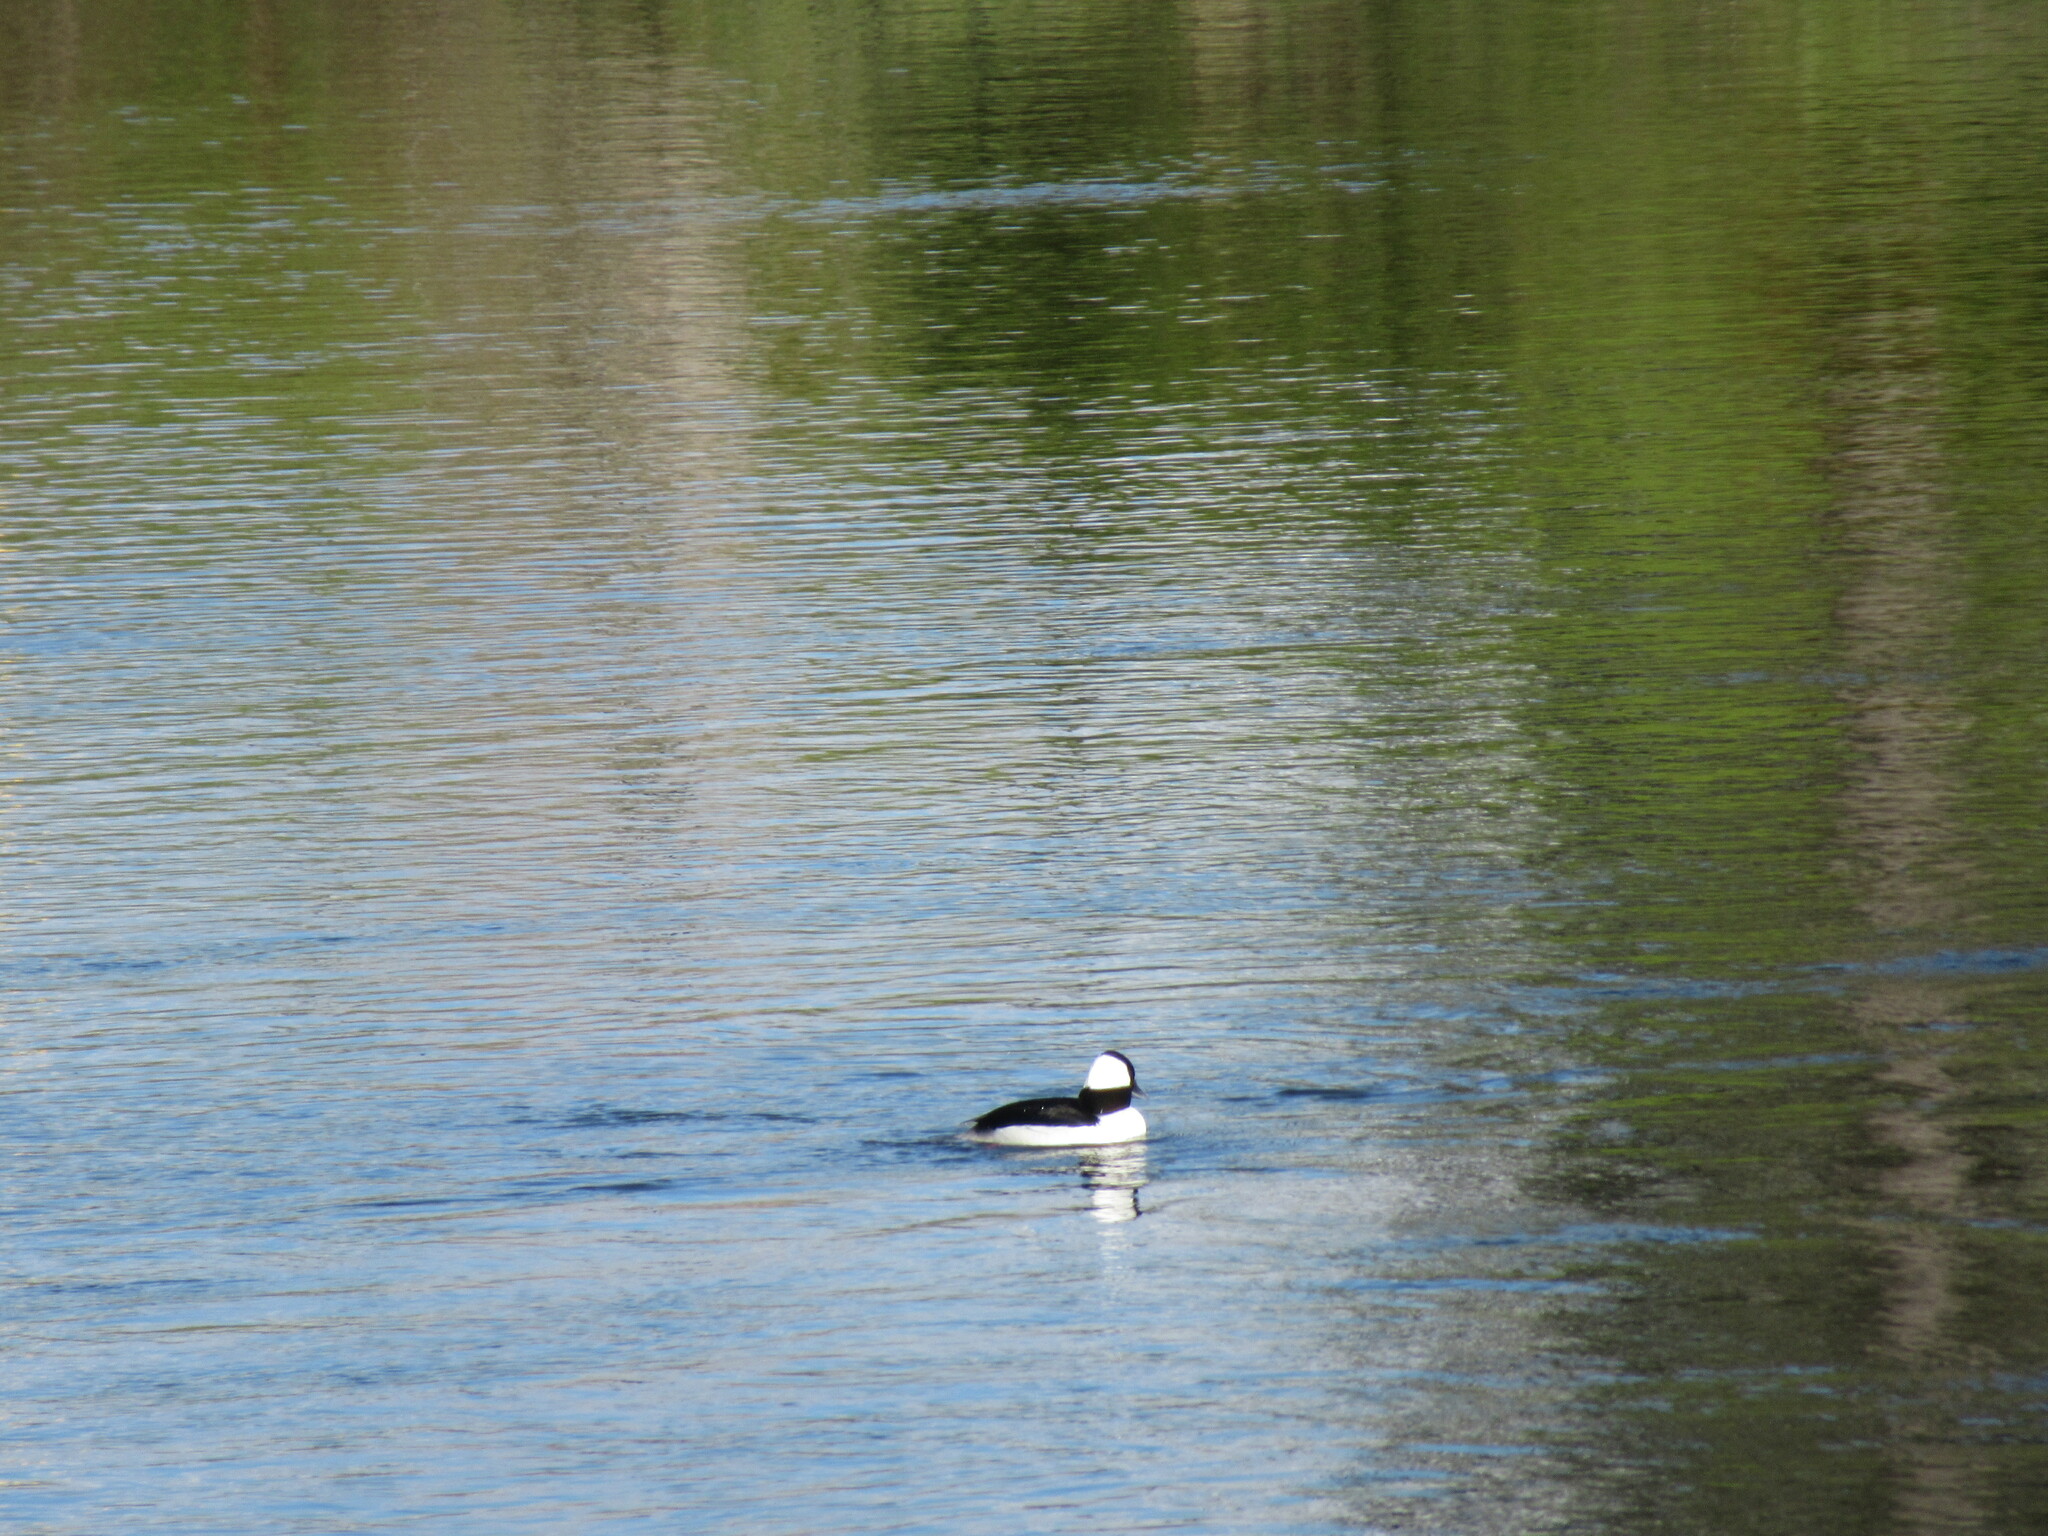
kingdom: Animalia
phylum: Chordata
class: Aves
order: Anseriformes
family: Anatidae
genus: Bucephala
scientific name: Bucephala albeola
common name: Bufflehead
